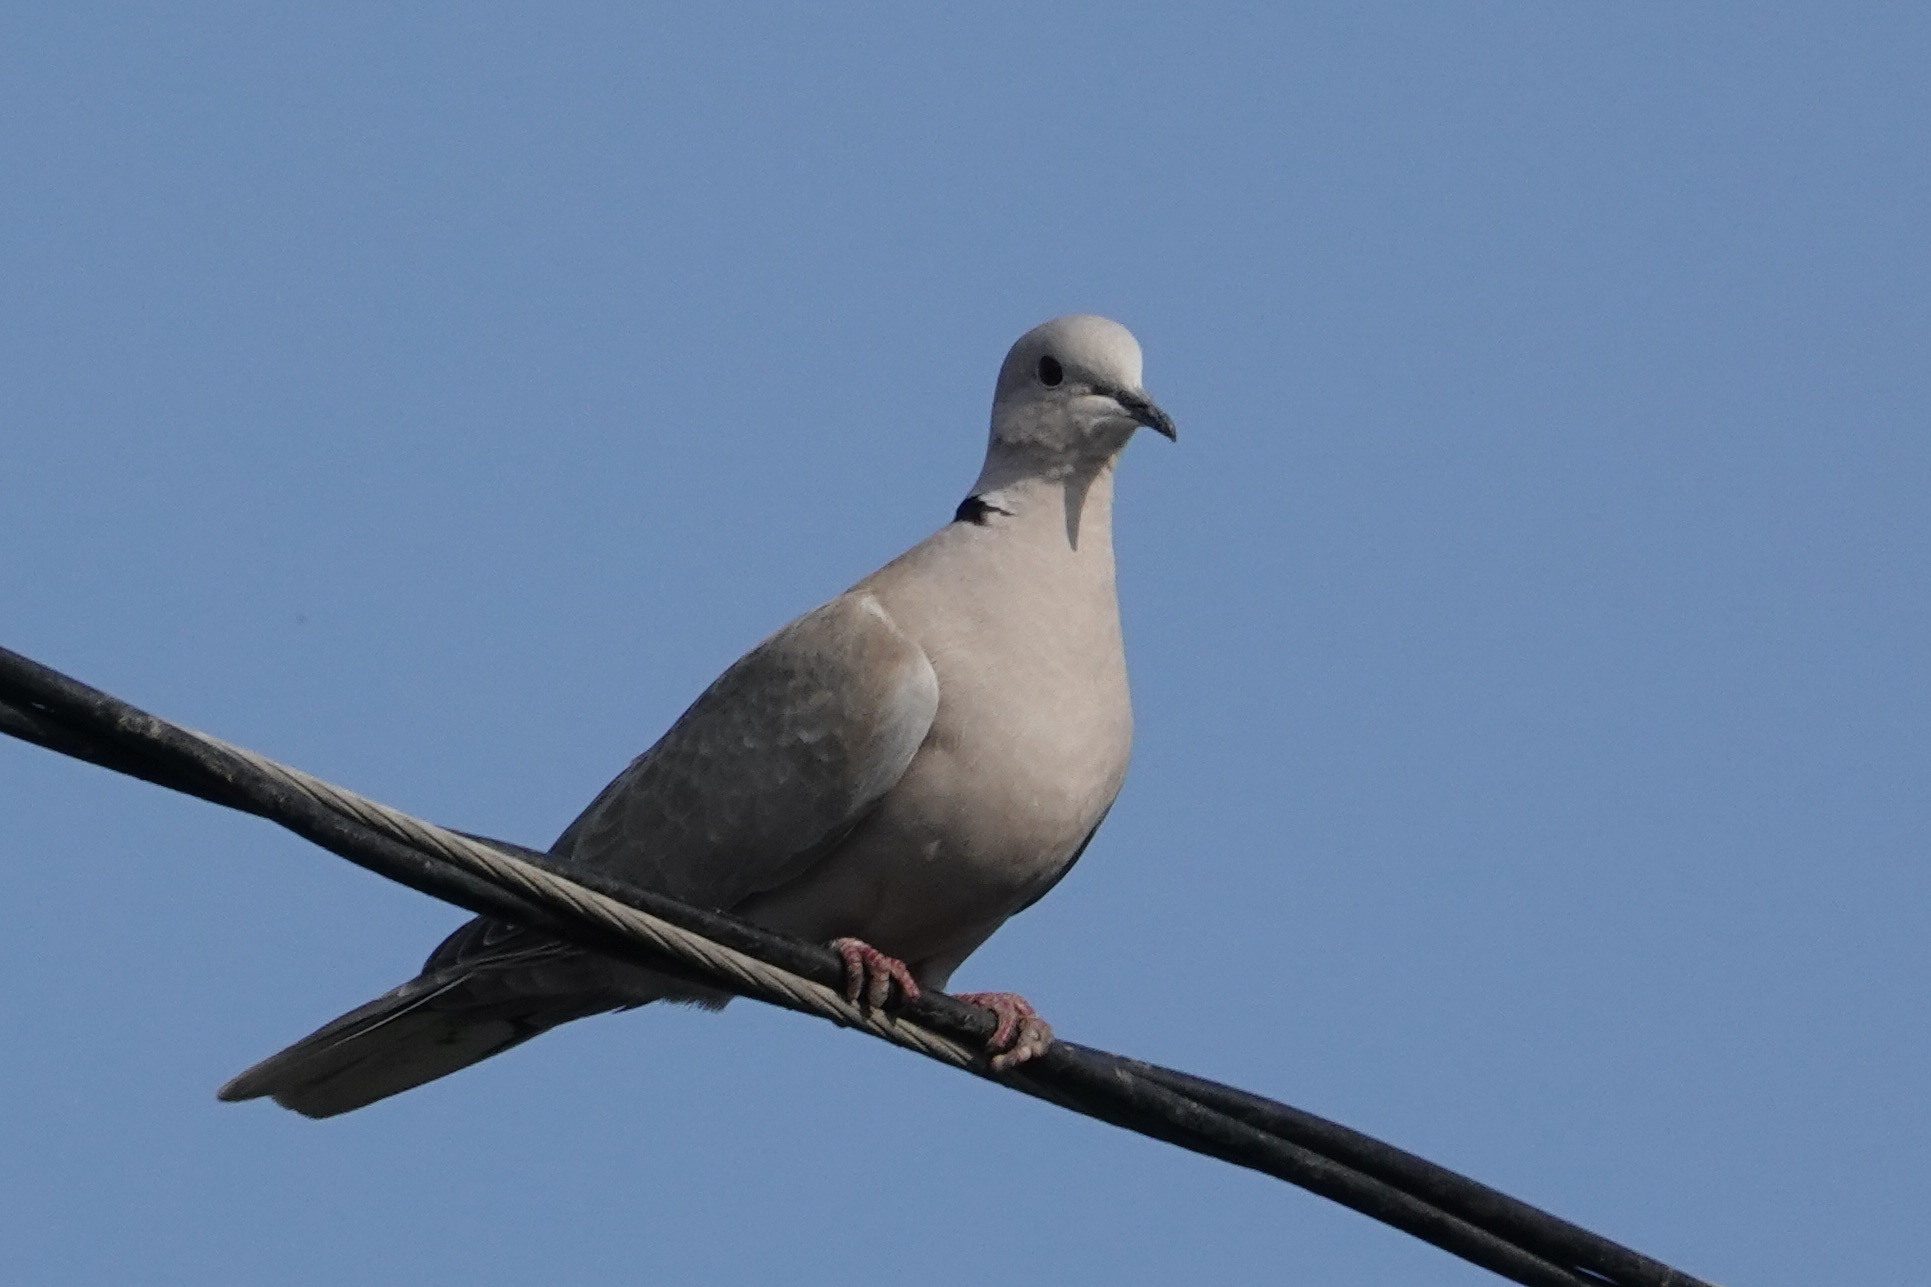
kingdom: Animalia
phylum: Chordata
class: Aves
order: Columbiformes
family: Columbidae
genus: Streptopelia
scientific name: Streptopelia decaocto
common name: Eurasian collared dove
